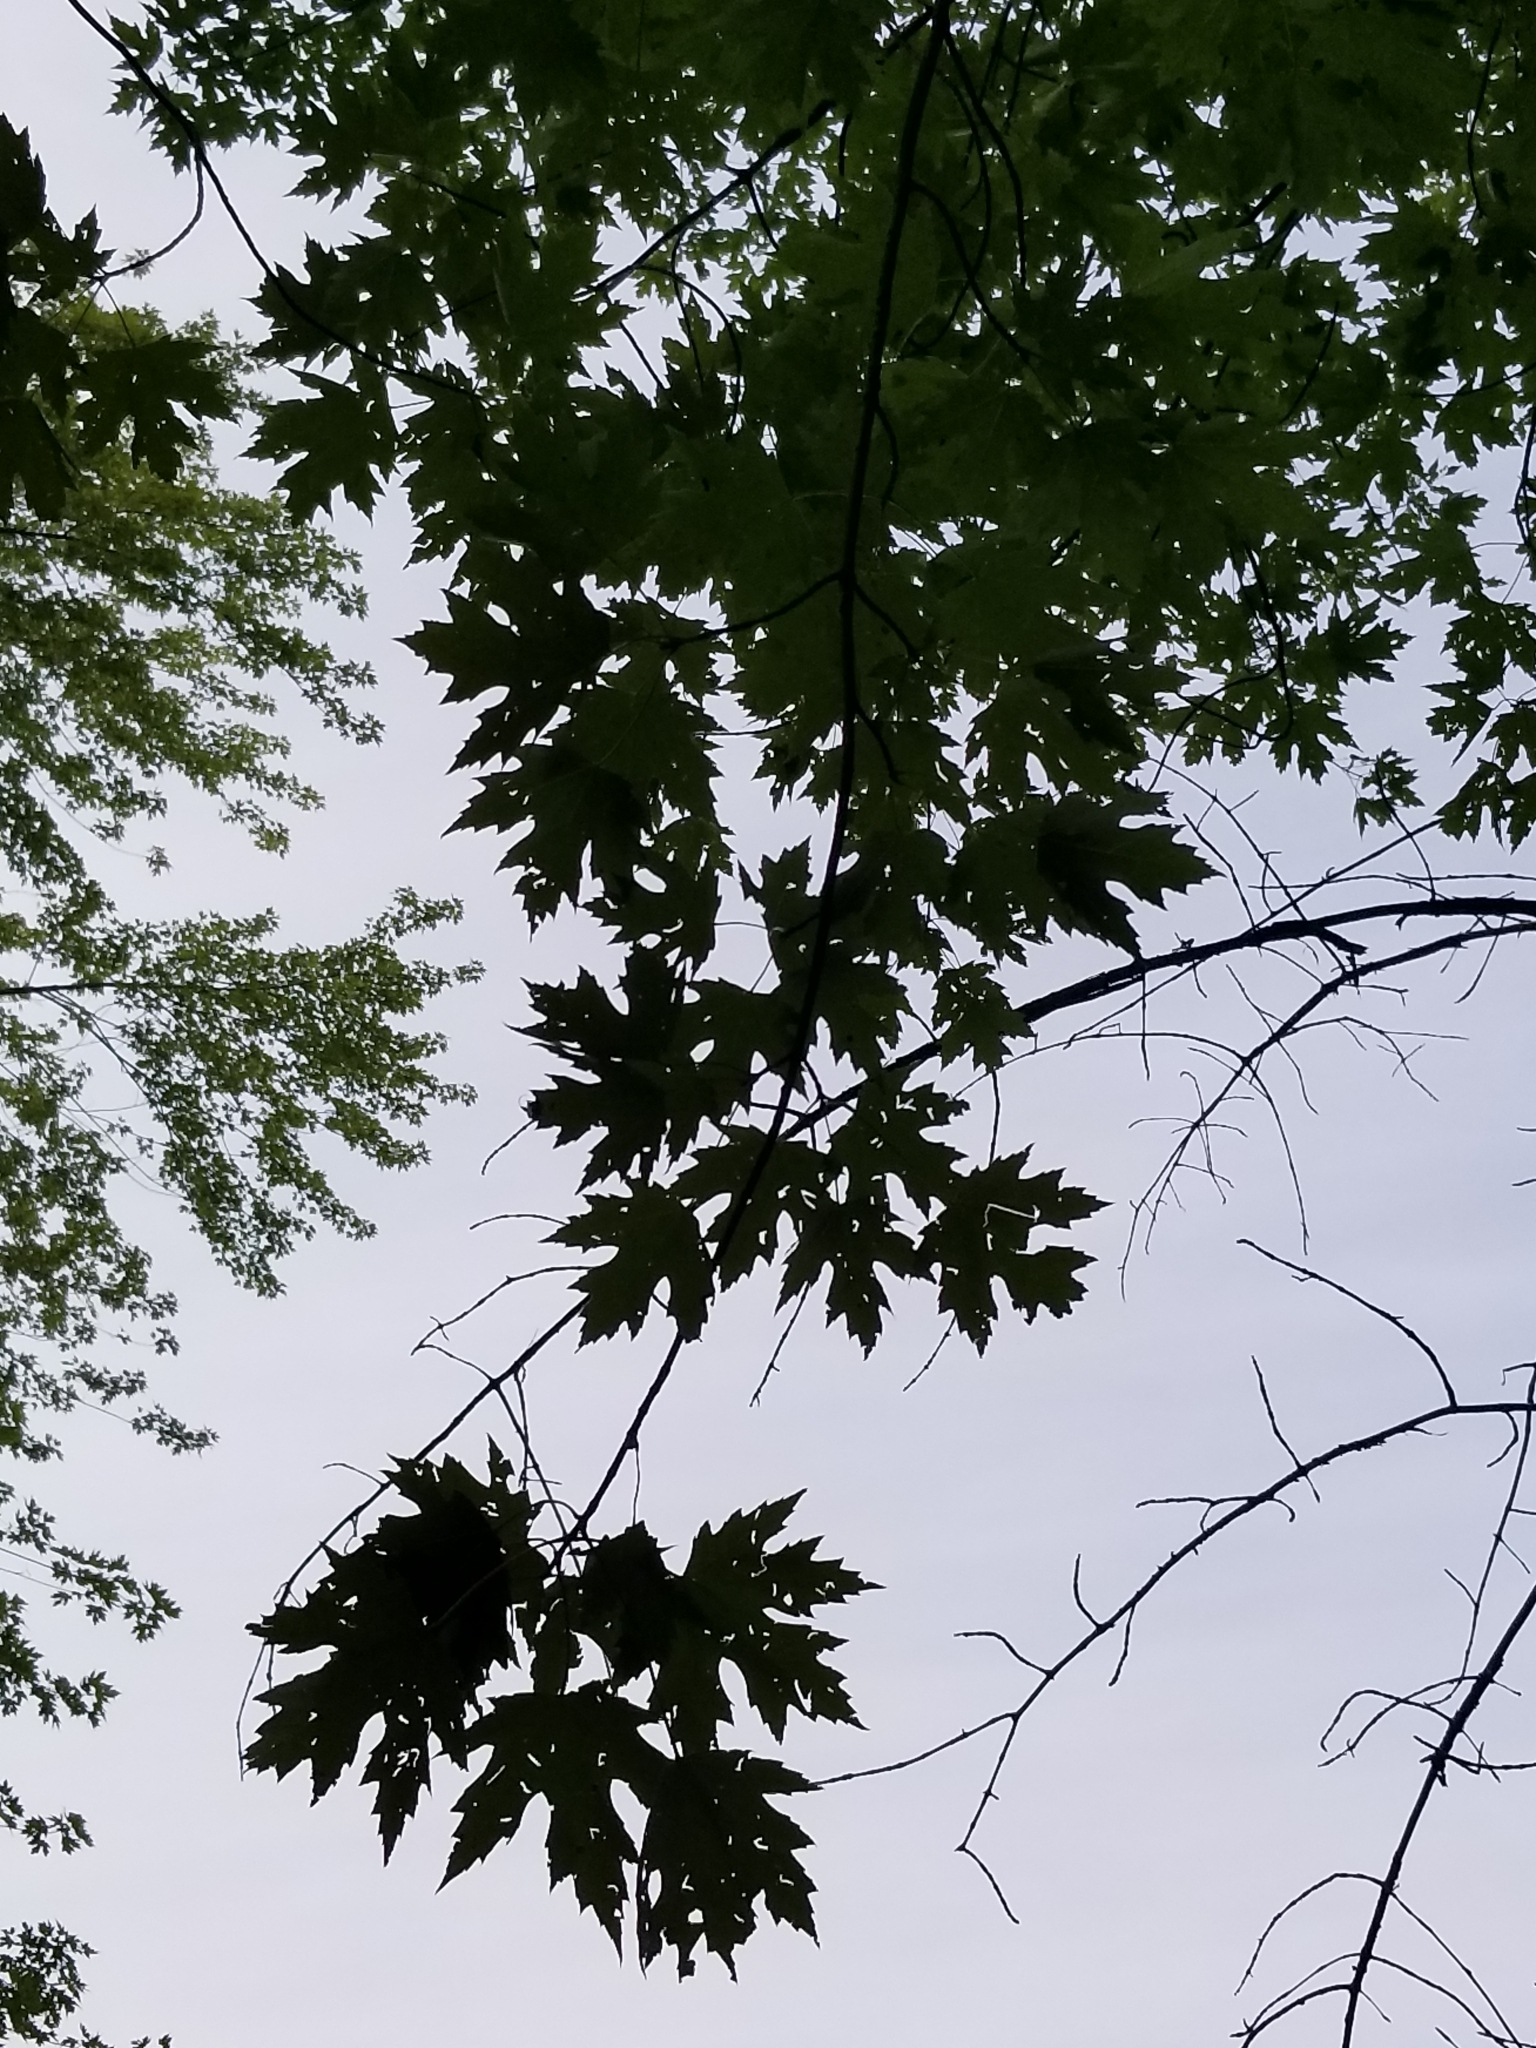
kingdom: Plantae
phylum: Tracheophyta
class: Magnoliopsida
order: Sapindales
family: Sapindaceae
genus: Acer
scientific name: Acer saccharinum
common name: Silver maple
